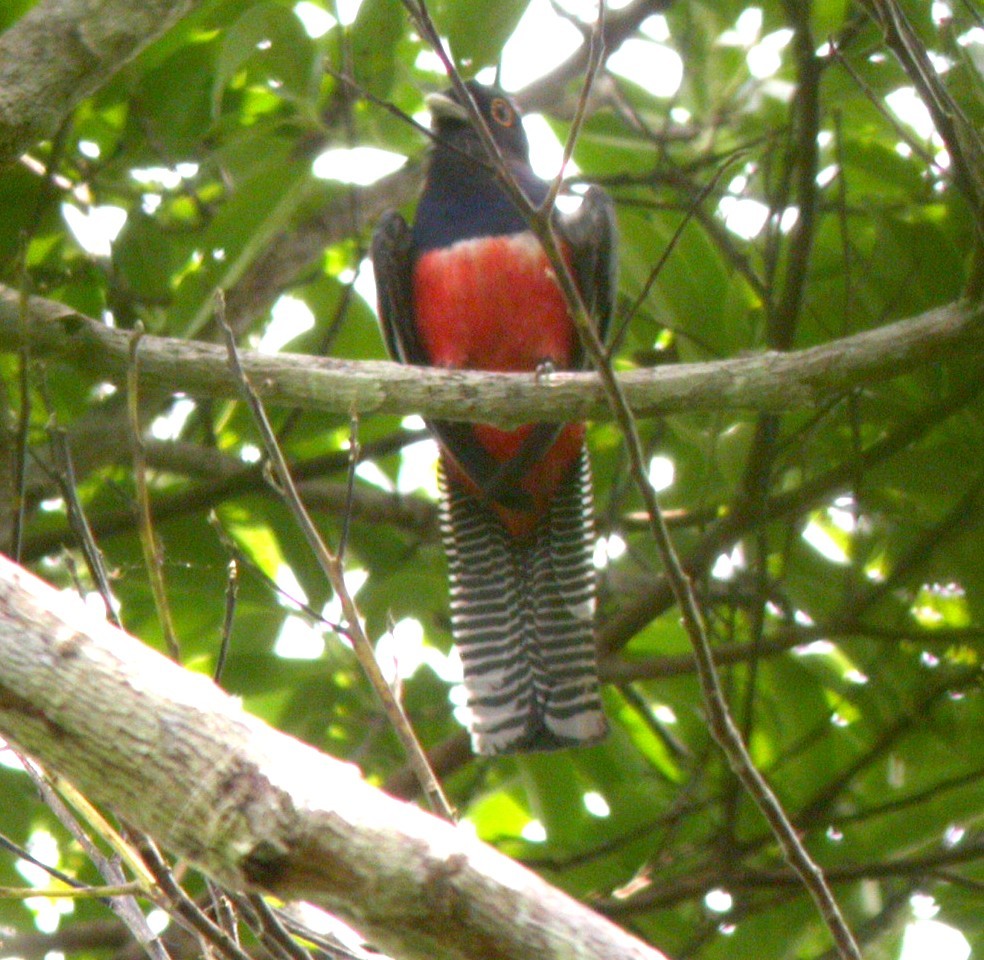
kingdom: Animalia
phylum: Chordata
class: Aves
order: Trogoniformes
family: Trogonidae
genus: Trogon
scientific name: Trogon curucui
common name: Blue-crowned trogon
